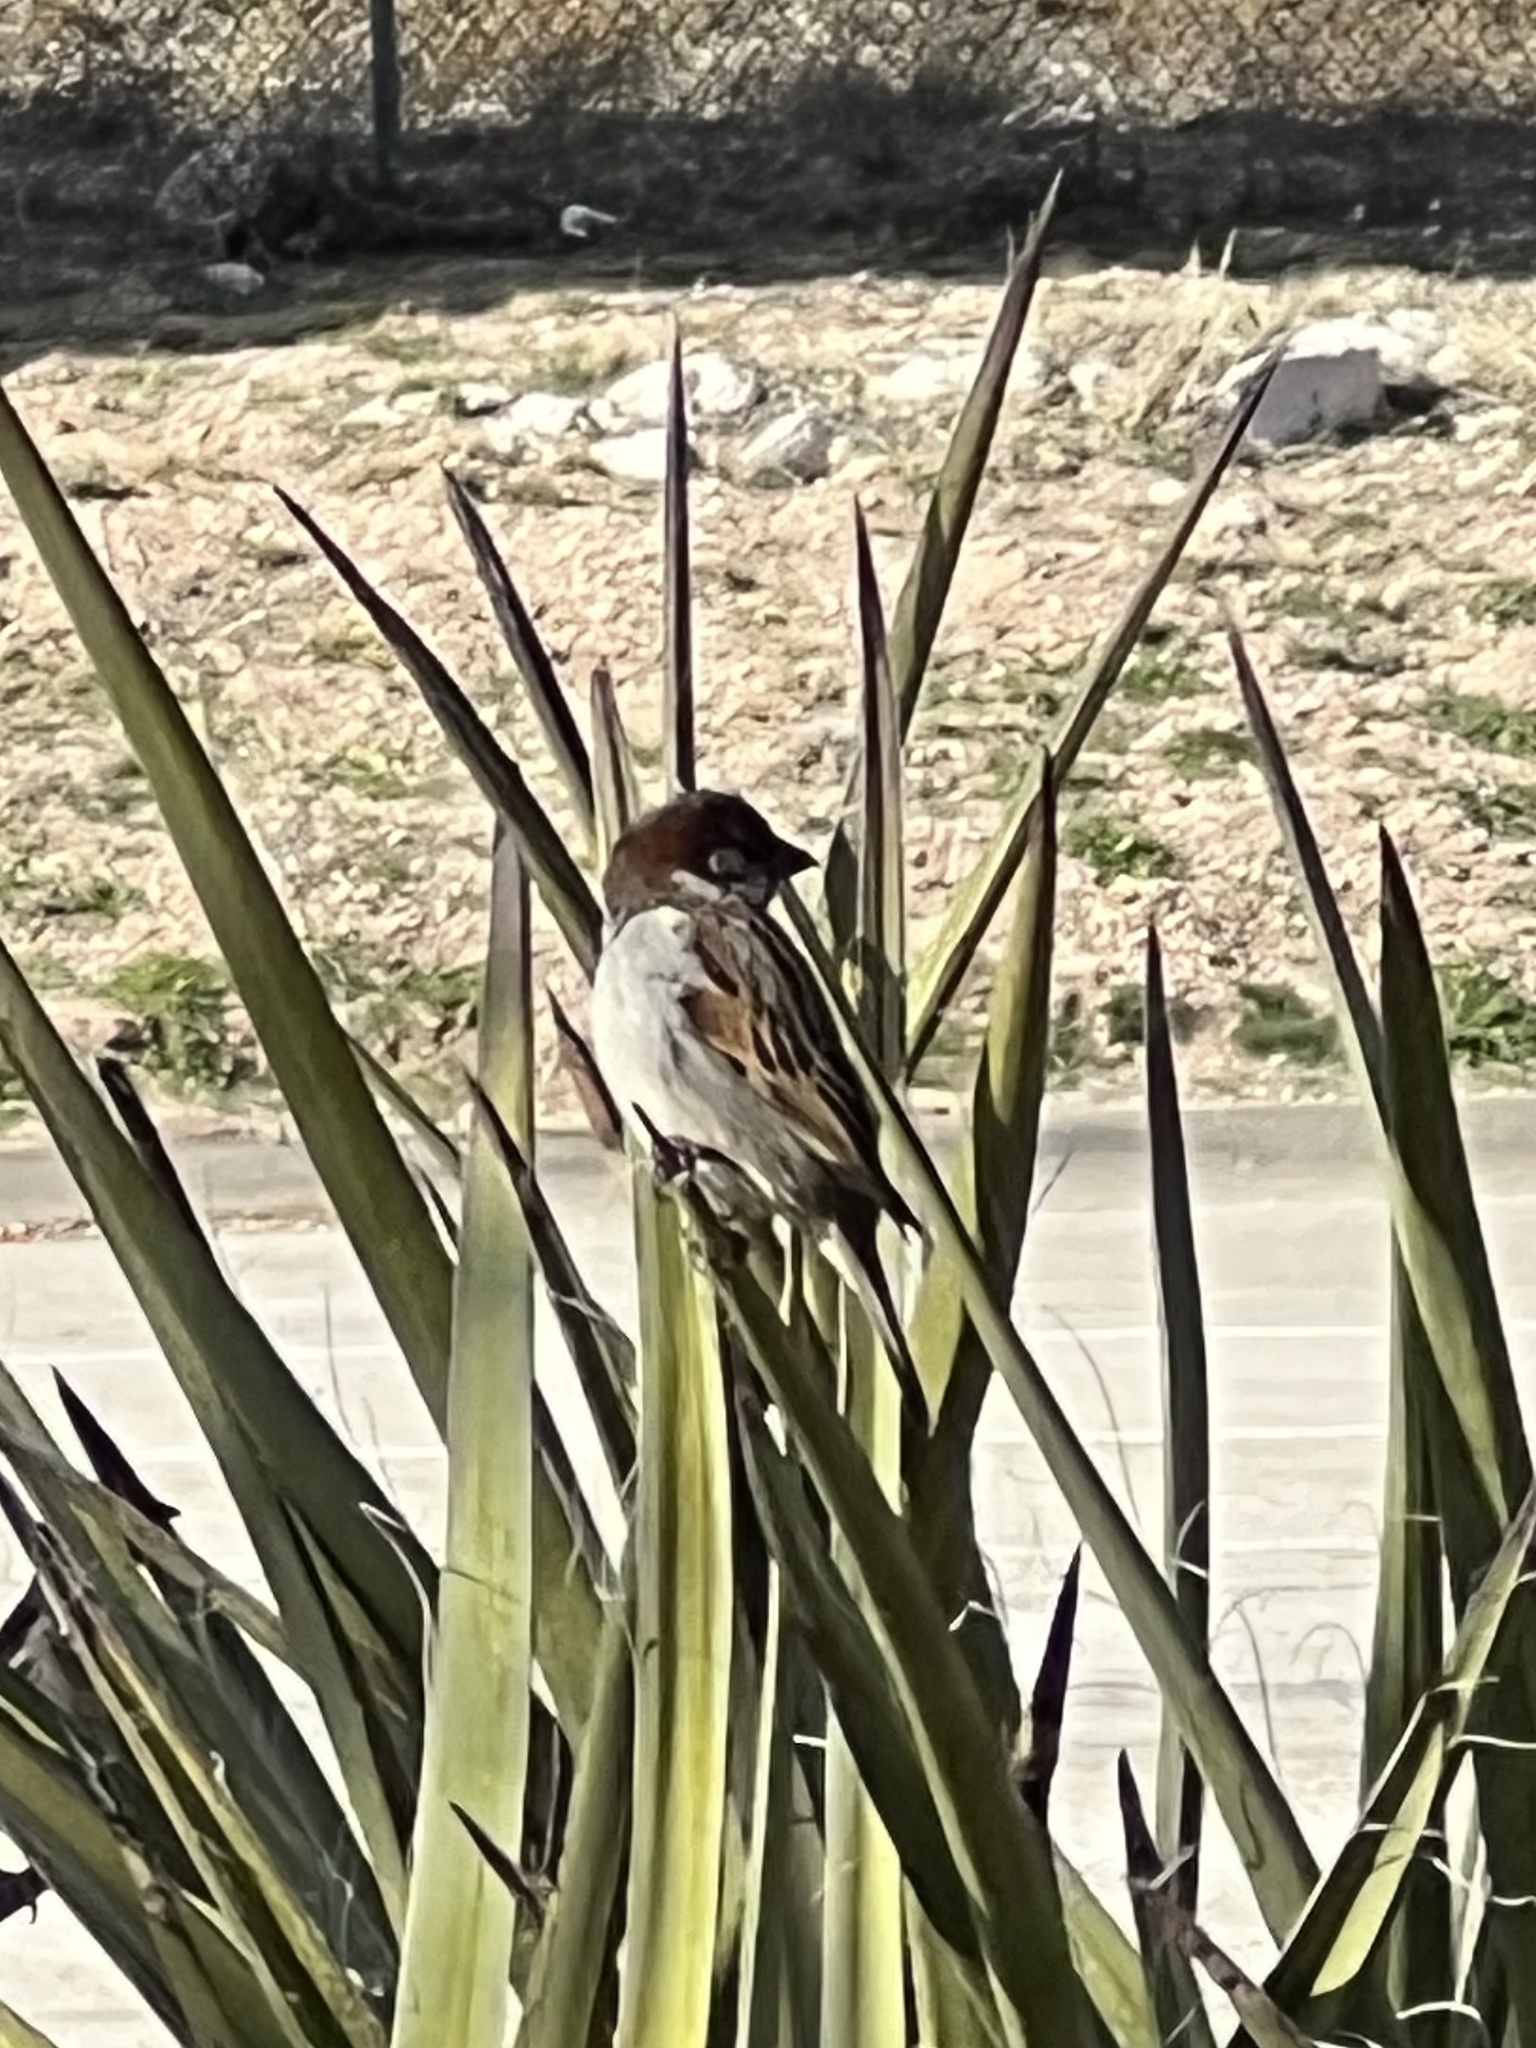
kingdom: Animalia
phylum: Chordata
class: Aves
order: Passeriformes
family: Passeridae
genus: Passer
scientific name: Passer domesticus
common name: House sparrow
